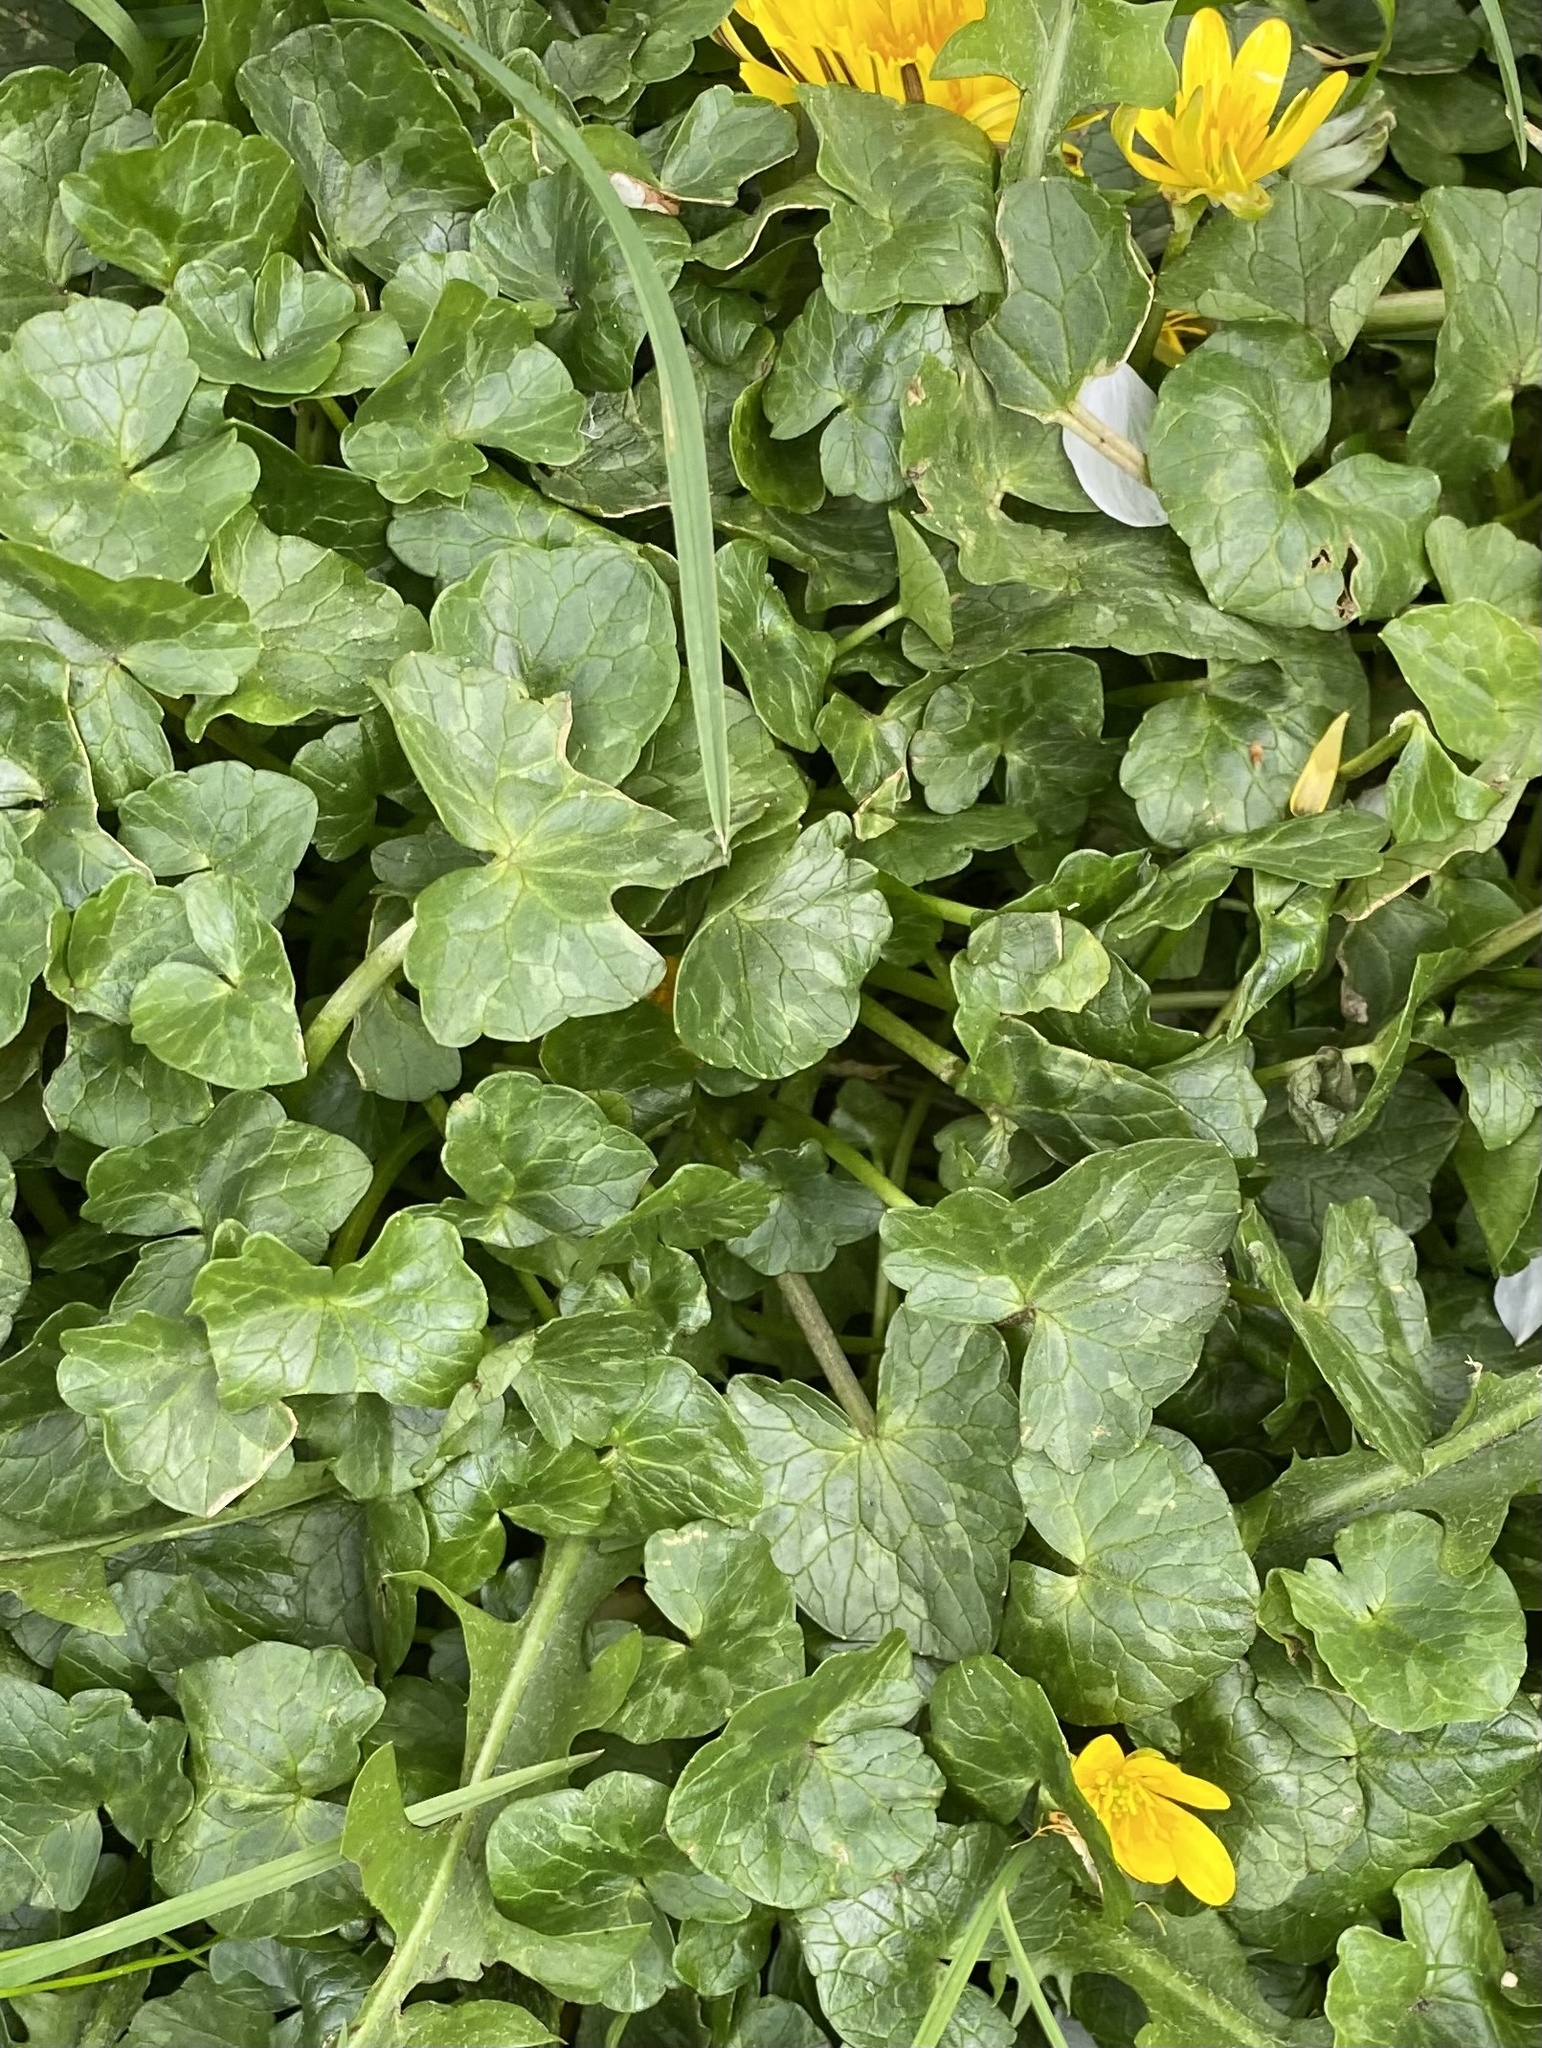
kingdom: Plantae
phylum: Tracheophyta
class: Magnoliopsida
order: Ranunculales
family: Ranunculaceae
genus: Ficaria
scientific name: Ficaria verna
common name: Lesser celandine
